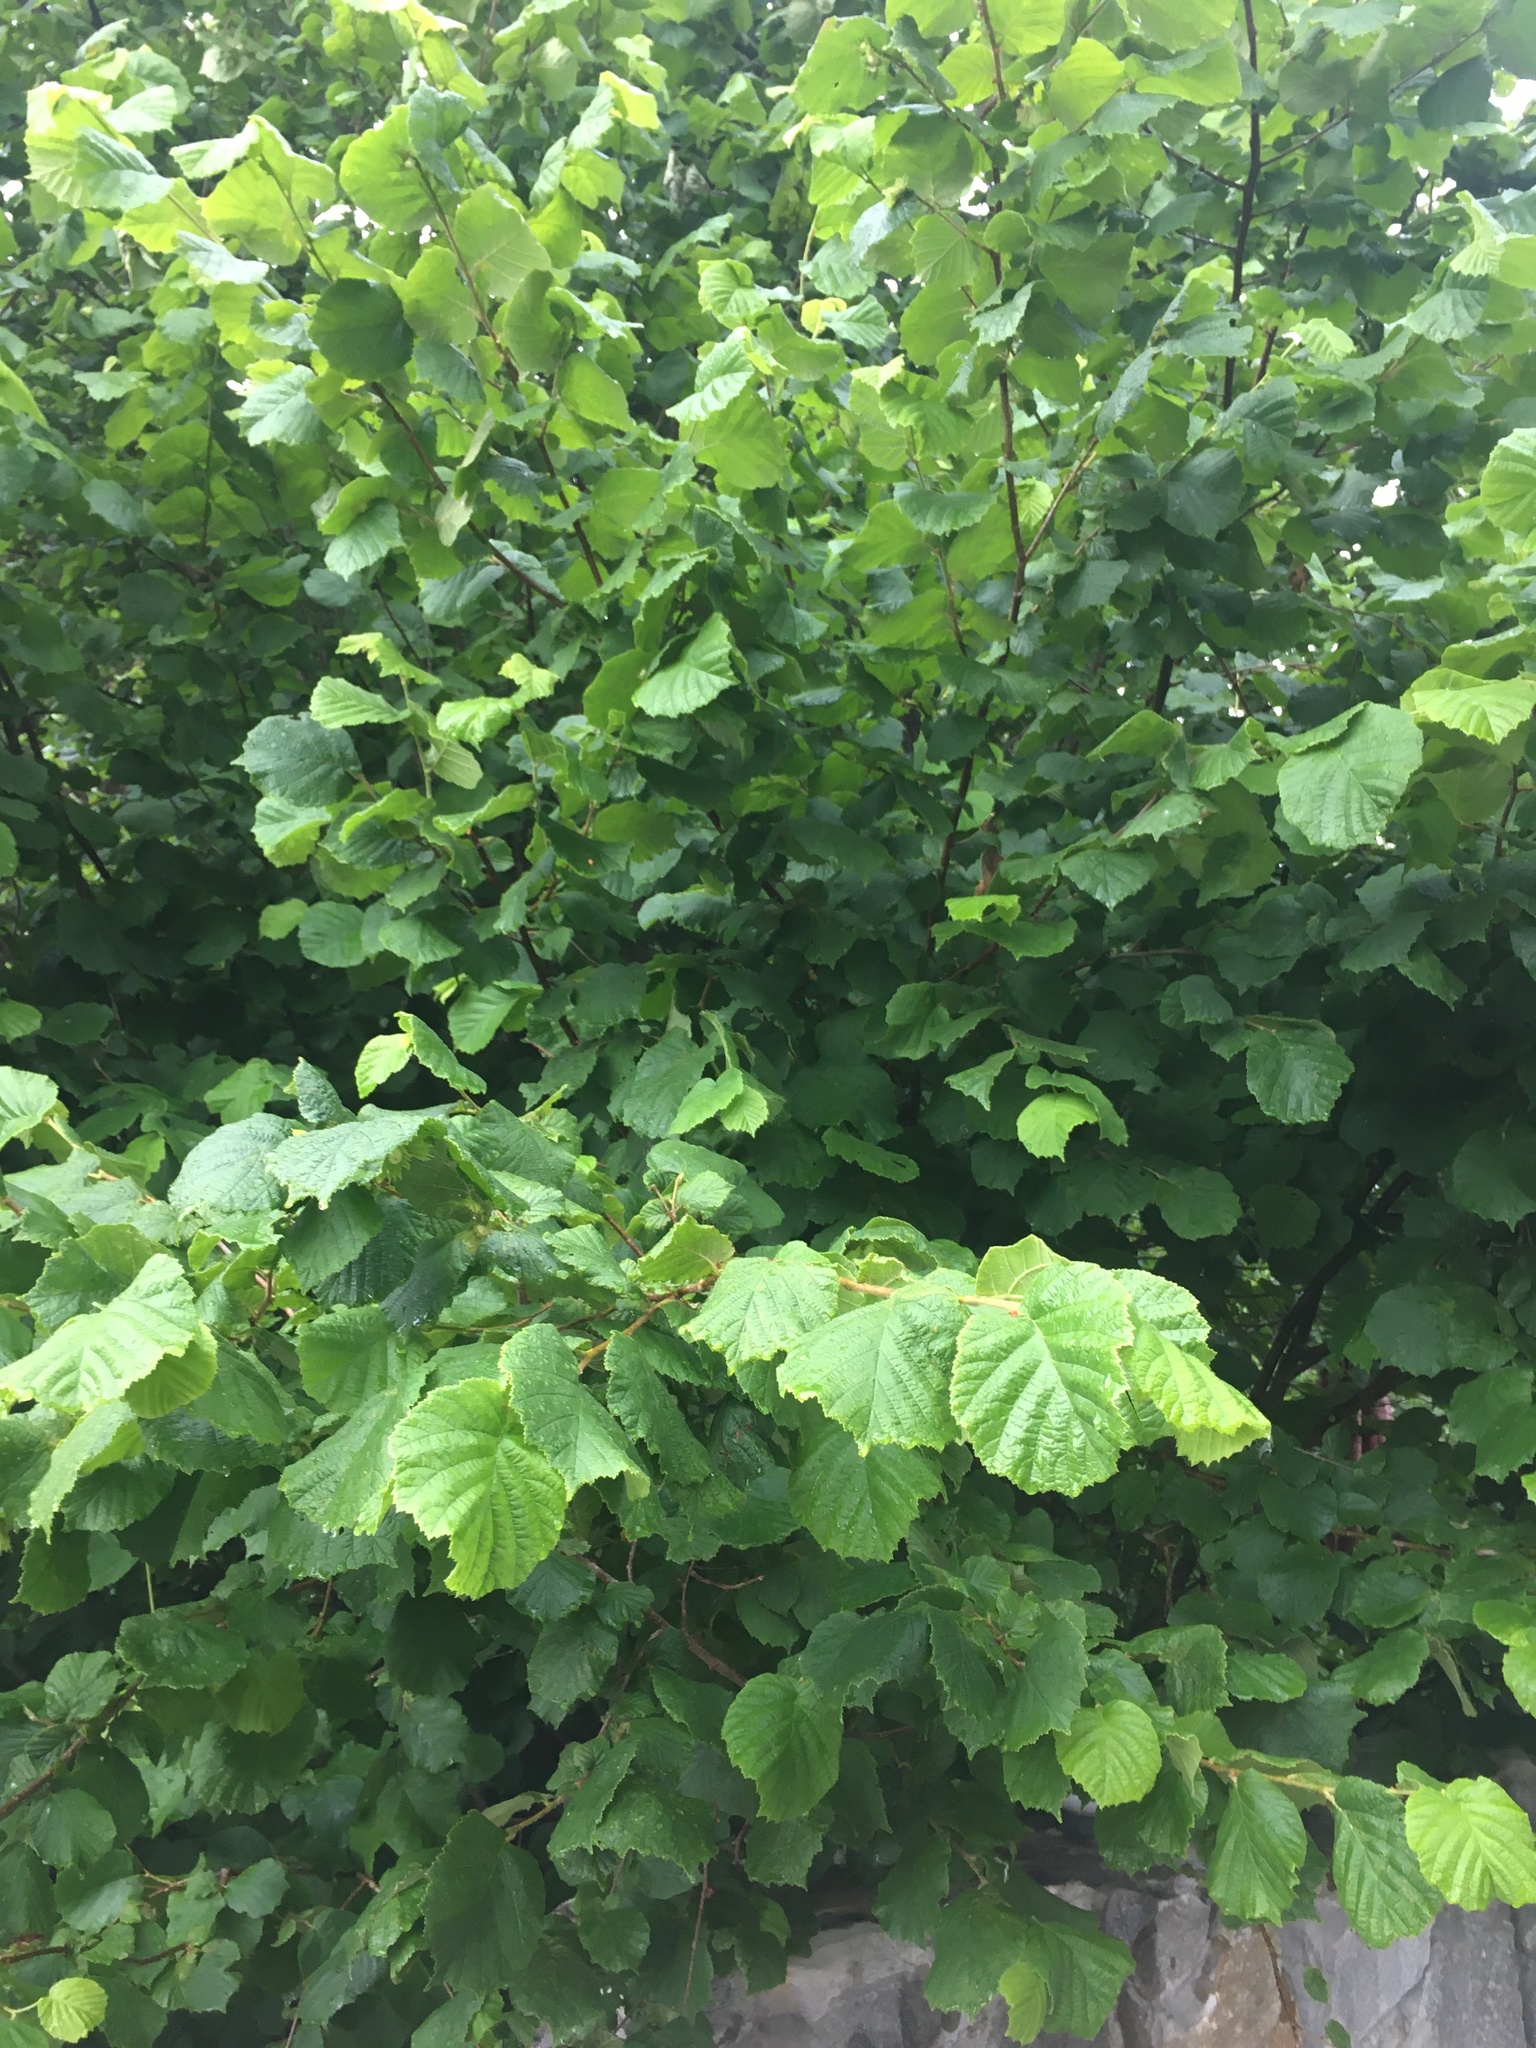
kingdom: Plantae
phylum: Tracheophyta
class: Magnoliopsida
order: Fagales
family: Betulaceae
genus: Corylus
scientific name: Corylus avellana
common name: European hazel
